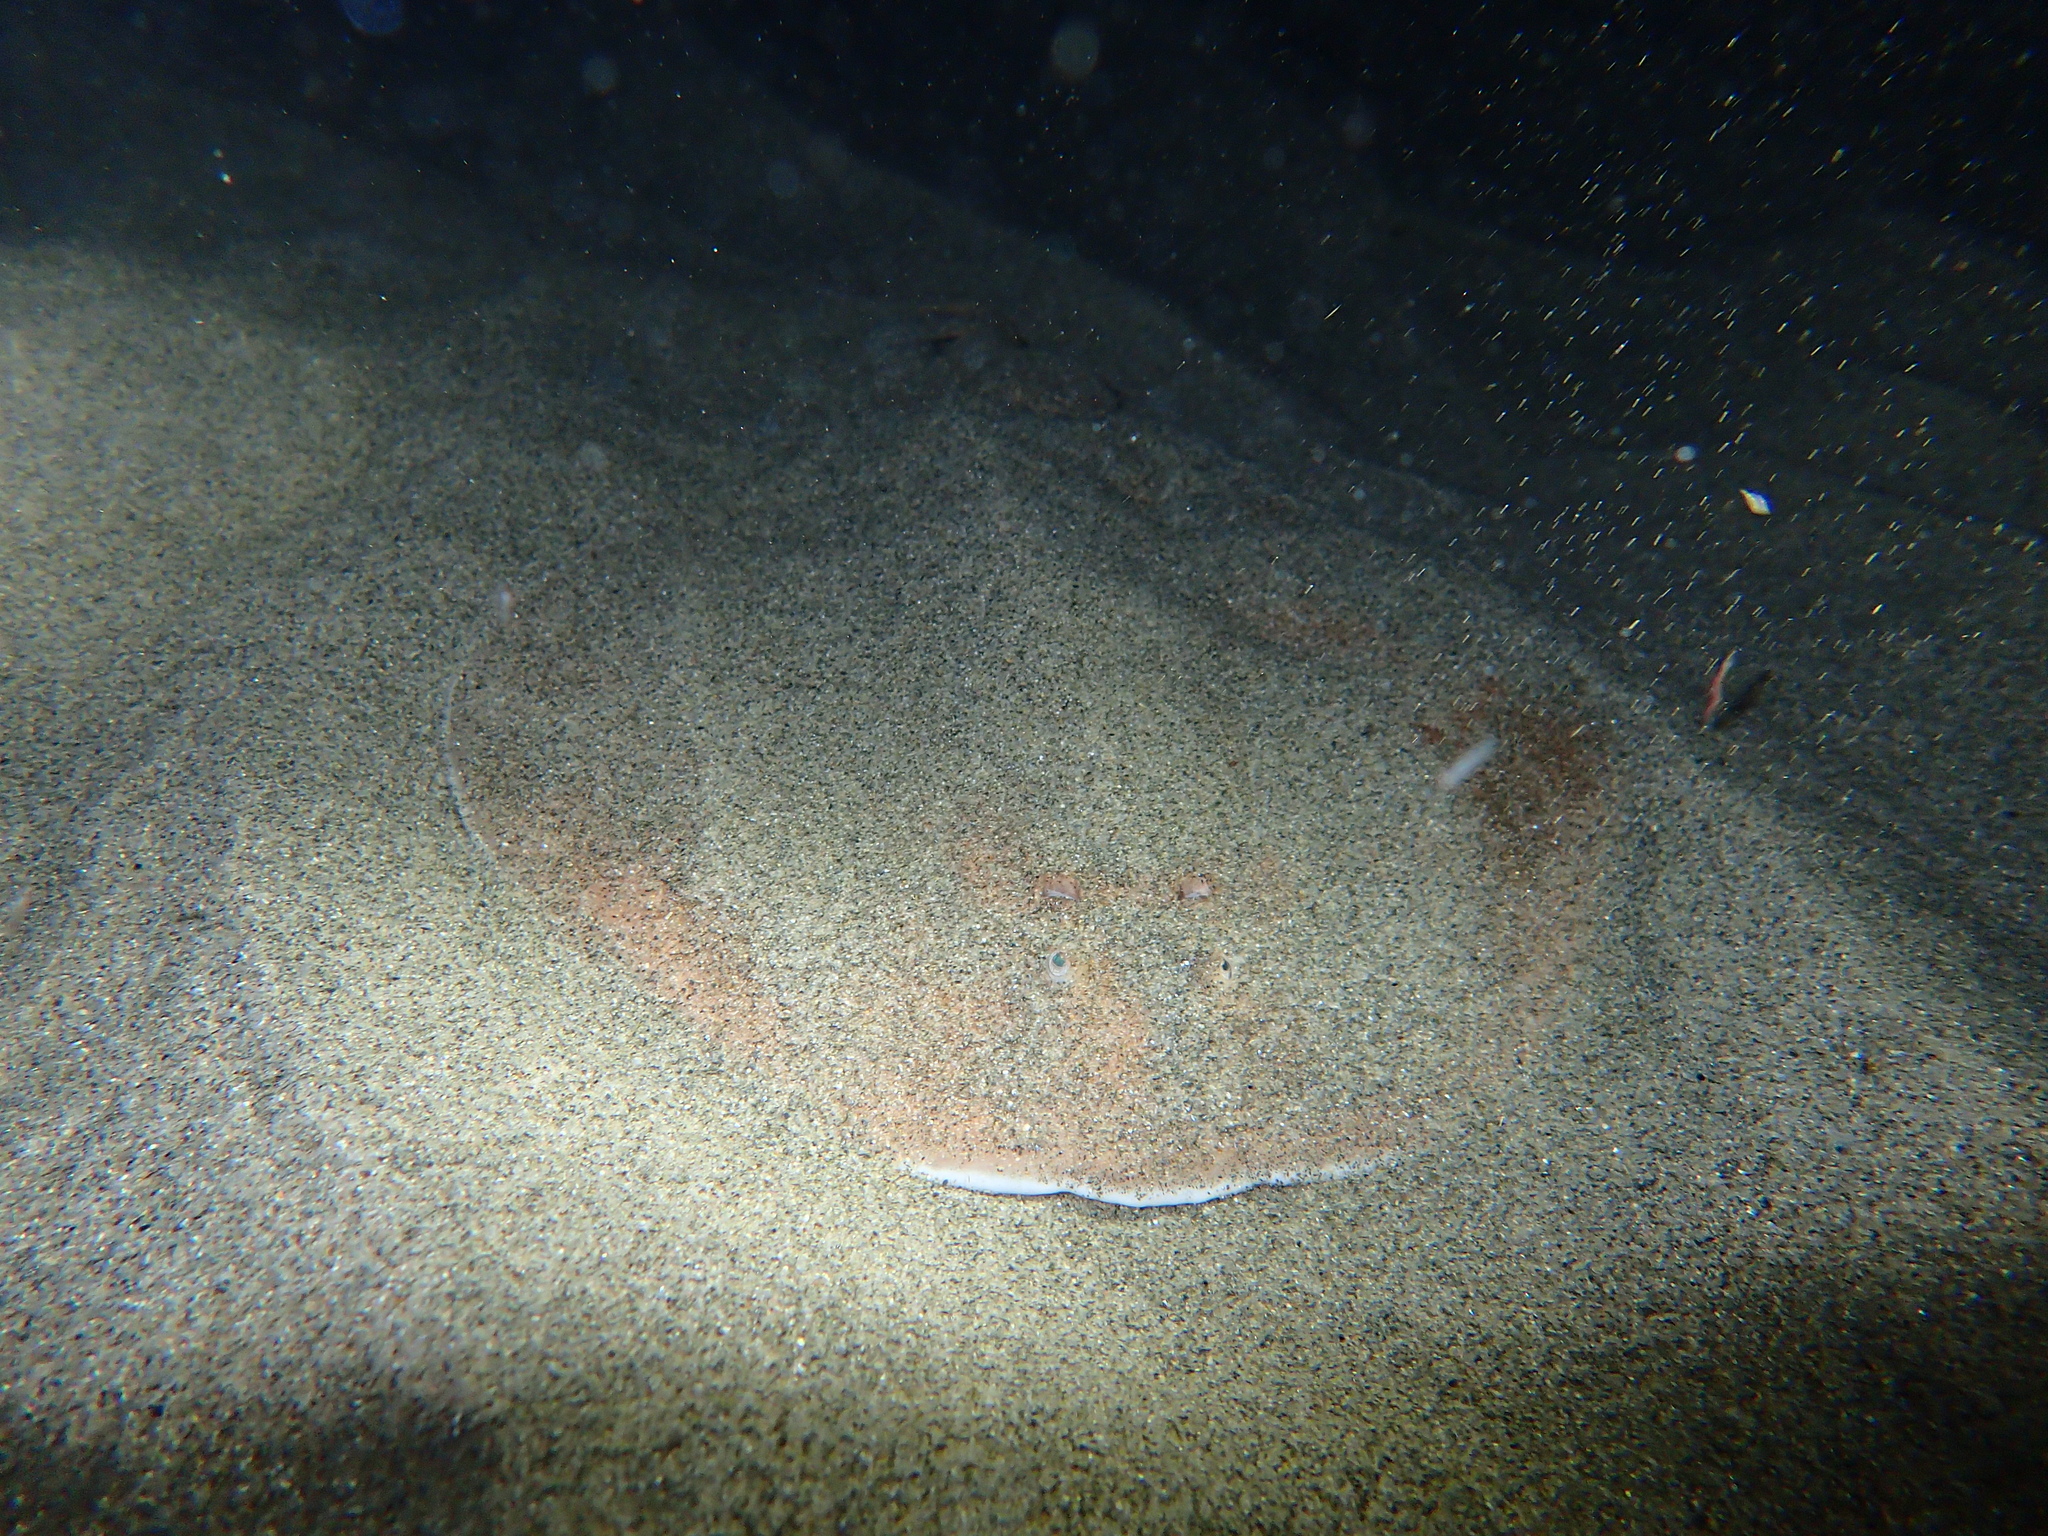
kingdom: Animalia
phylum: Chordata
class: Elasmobranchii
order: Torpediniformes
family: Torpedinidae
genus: Torpedo
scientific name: Torpedo torpedo
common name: Common torpedo
